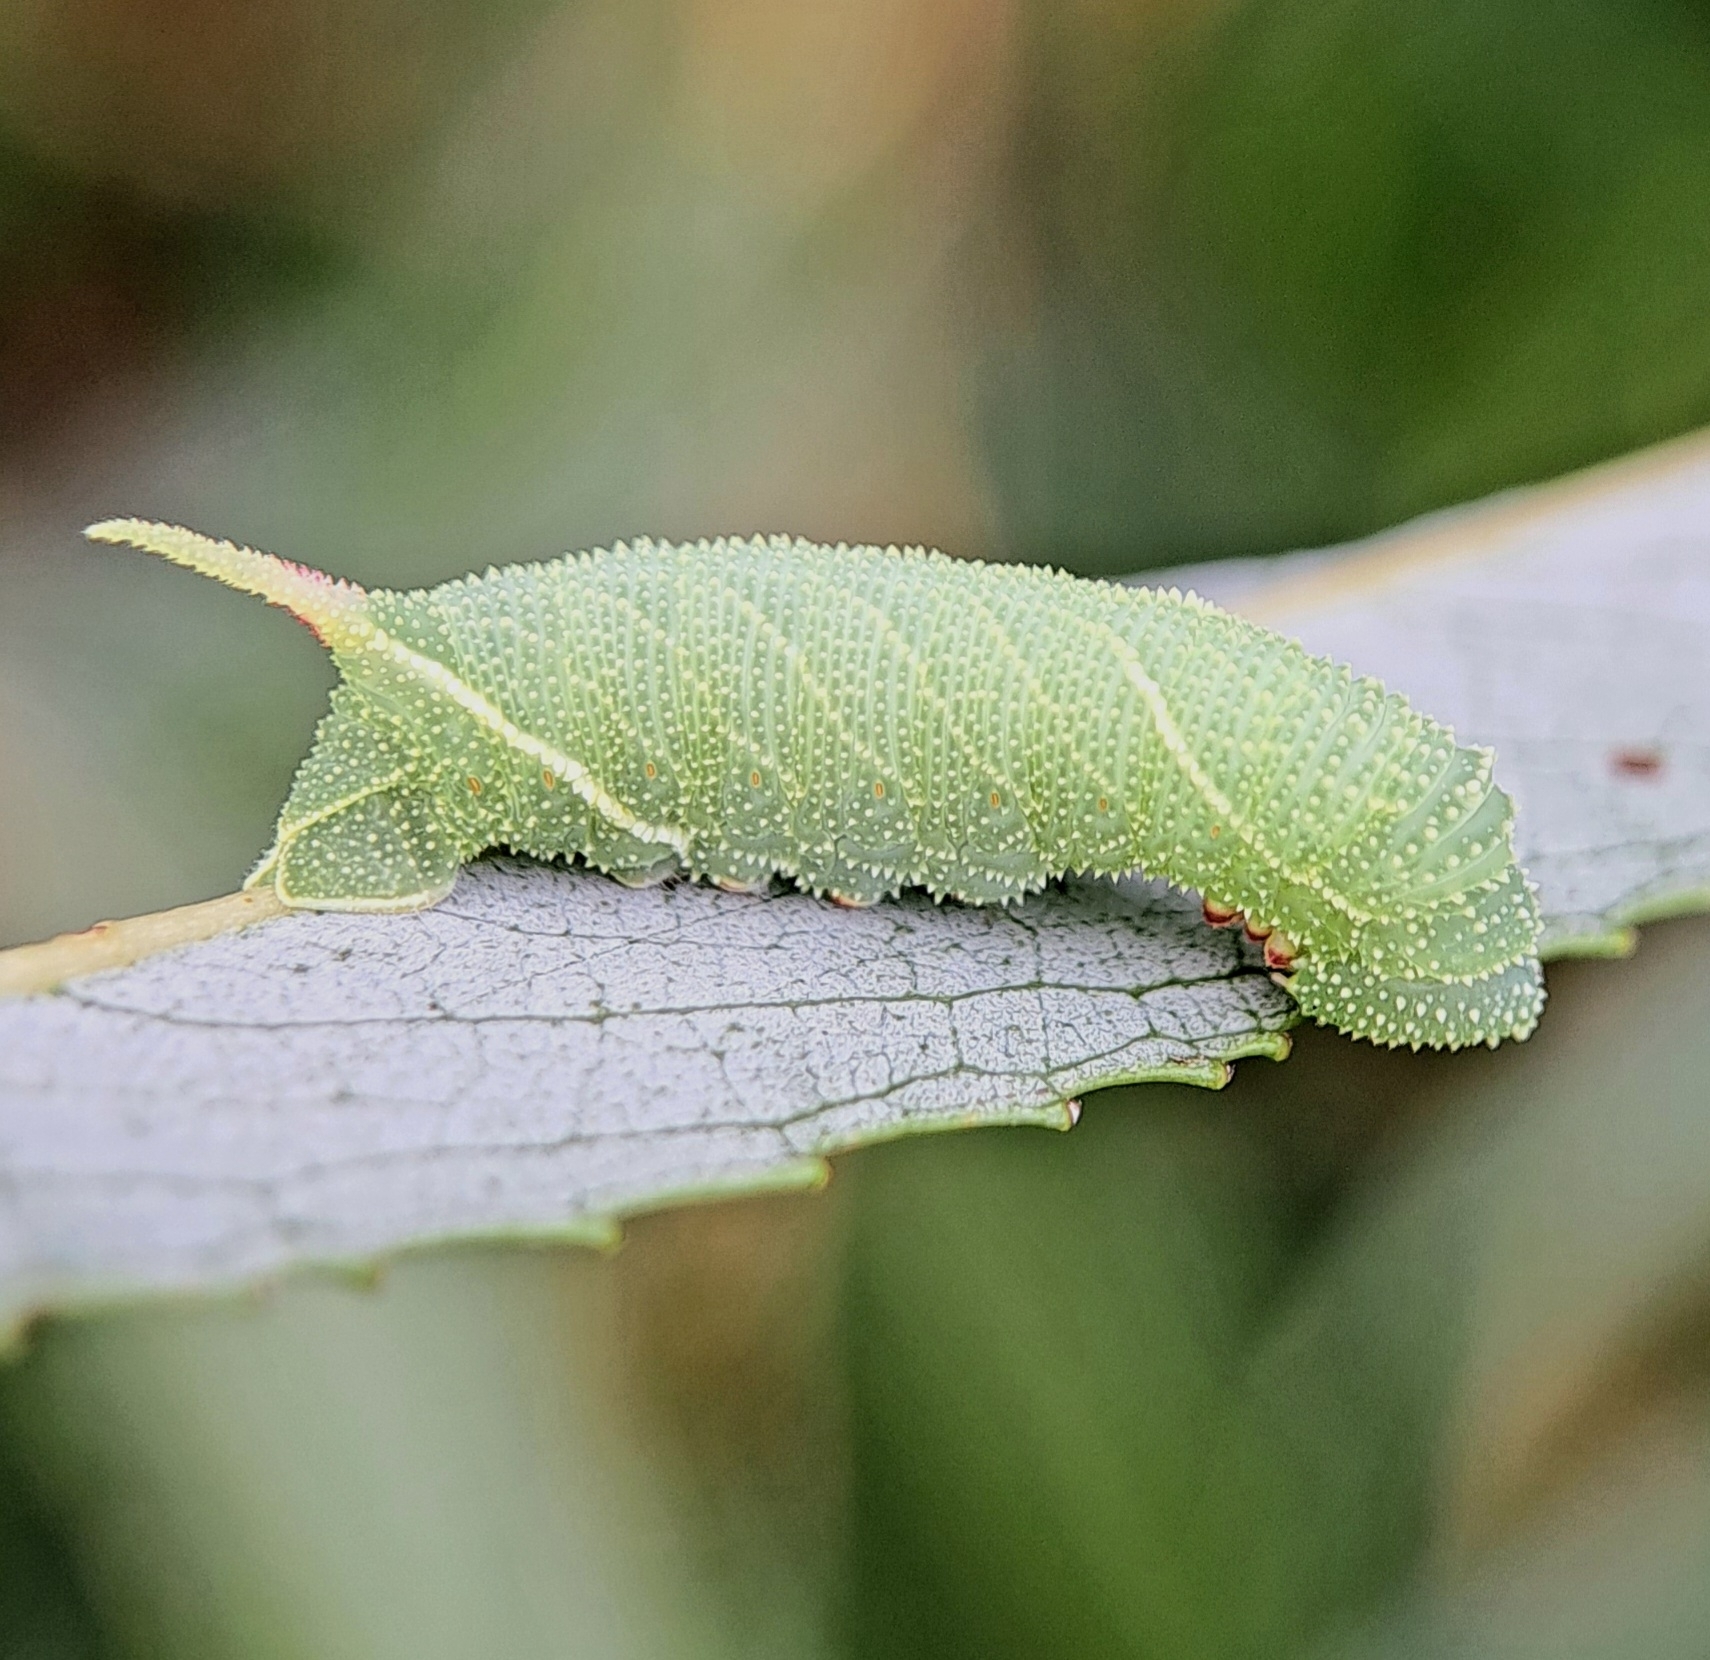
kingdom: Animalia
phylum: Arthropoda
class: Insecta
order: Lepidoptera
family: Sphingidae
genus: Laothoe
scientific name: Laothoe populi
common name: Poplar hawk-moth
